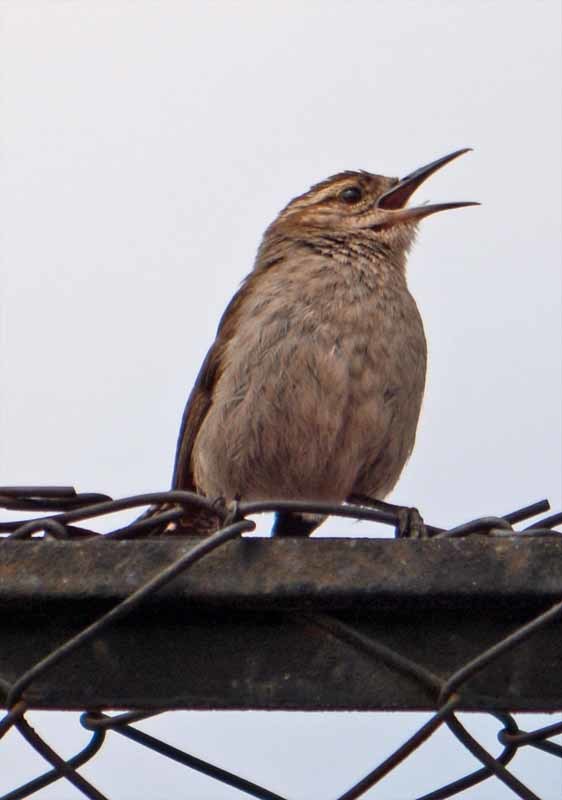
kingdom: Animalia
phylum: Chordata
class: Aves
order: Passeriformes
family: Troglodytidae
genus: Thryomanes
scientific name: Thryomanes bewickii
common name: Bewick's wren
